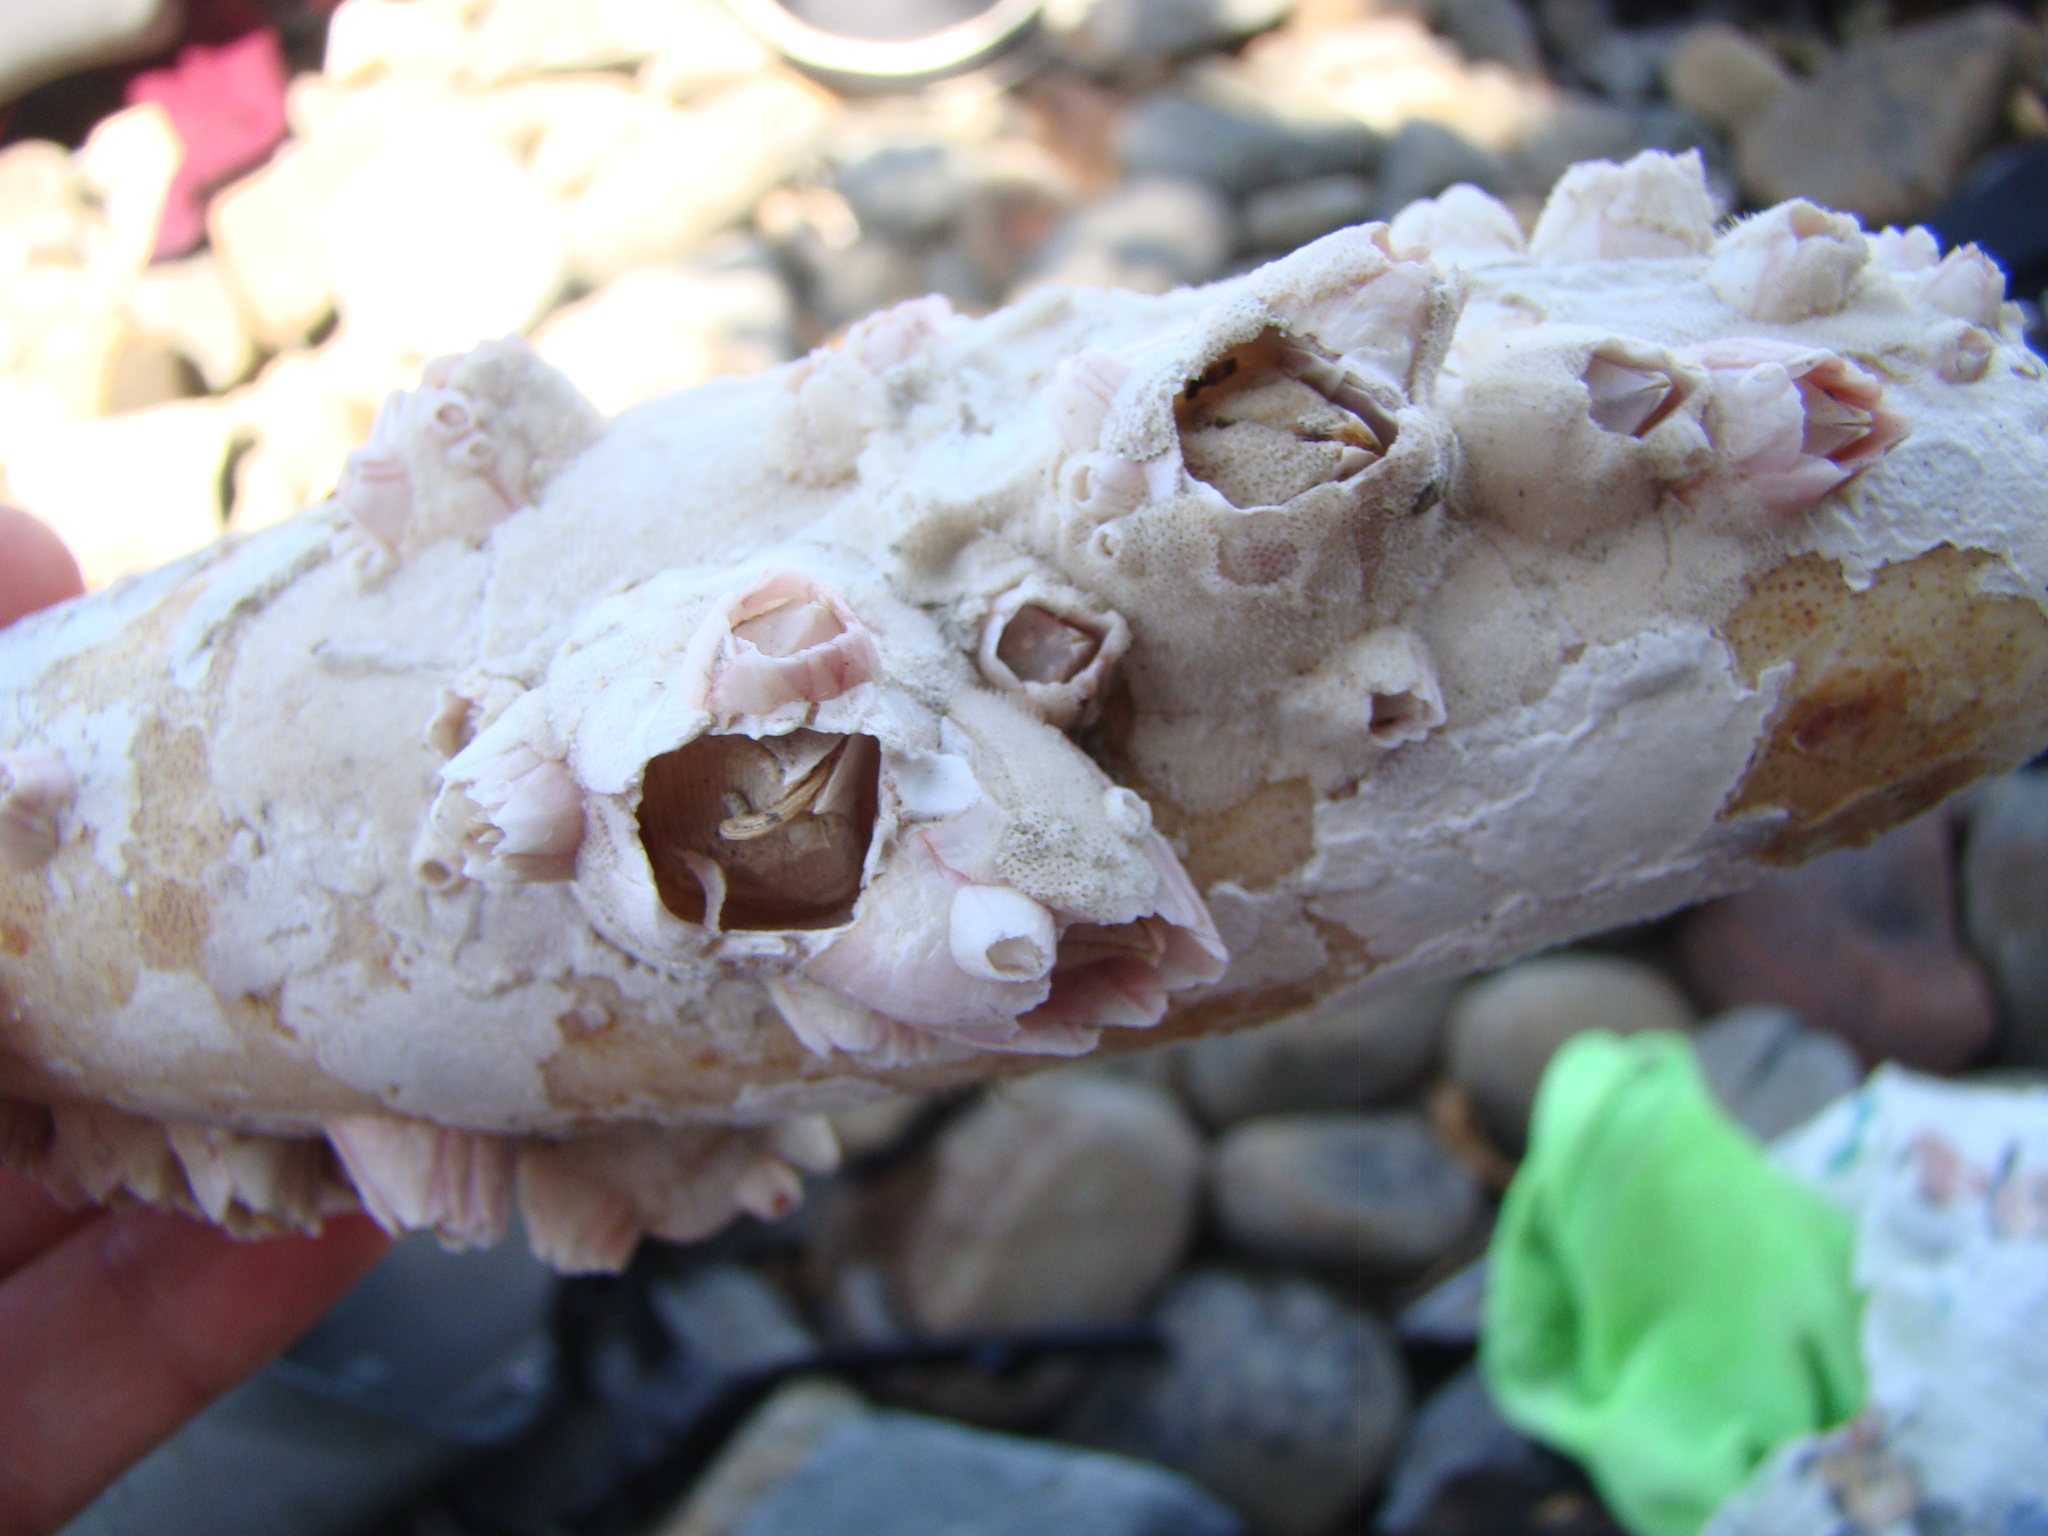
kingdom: Animalia
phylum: Arthropoda
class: Maxillopoda
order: Sessilia
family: Balanidae
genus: Notomegabalanus
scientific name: Notomegabalanus decorus
